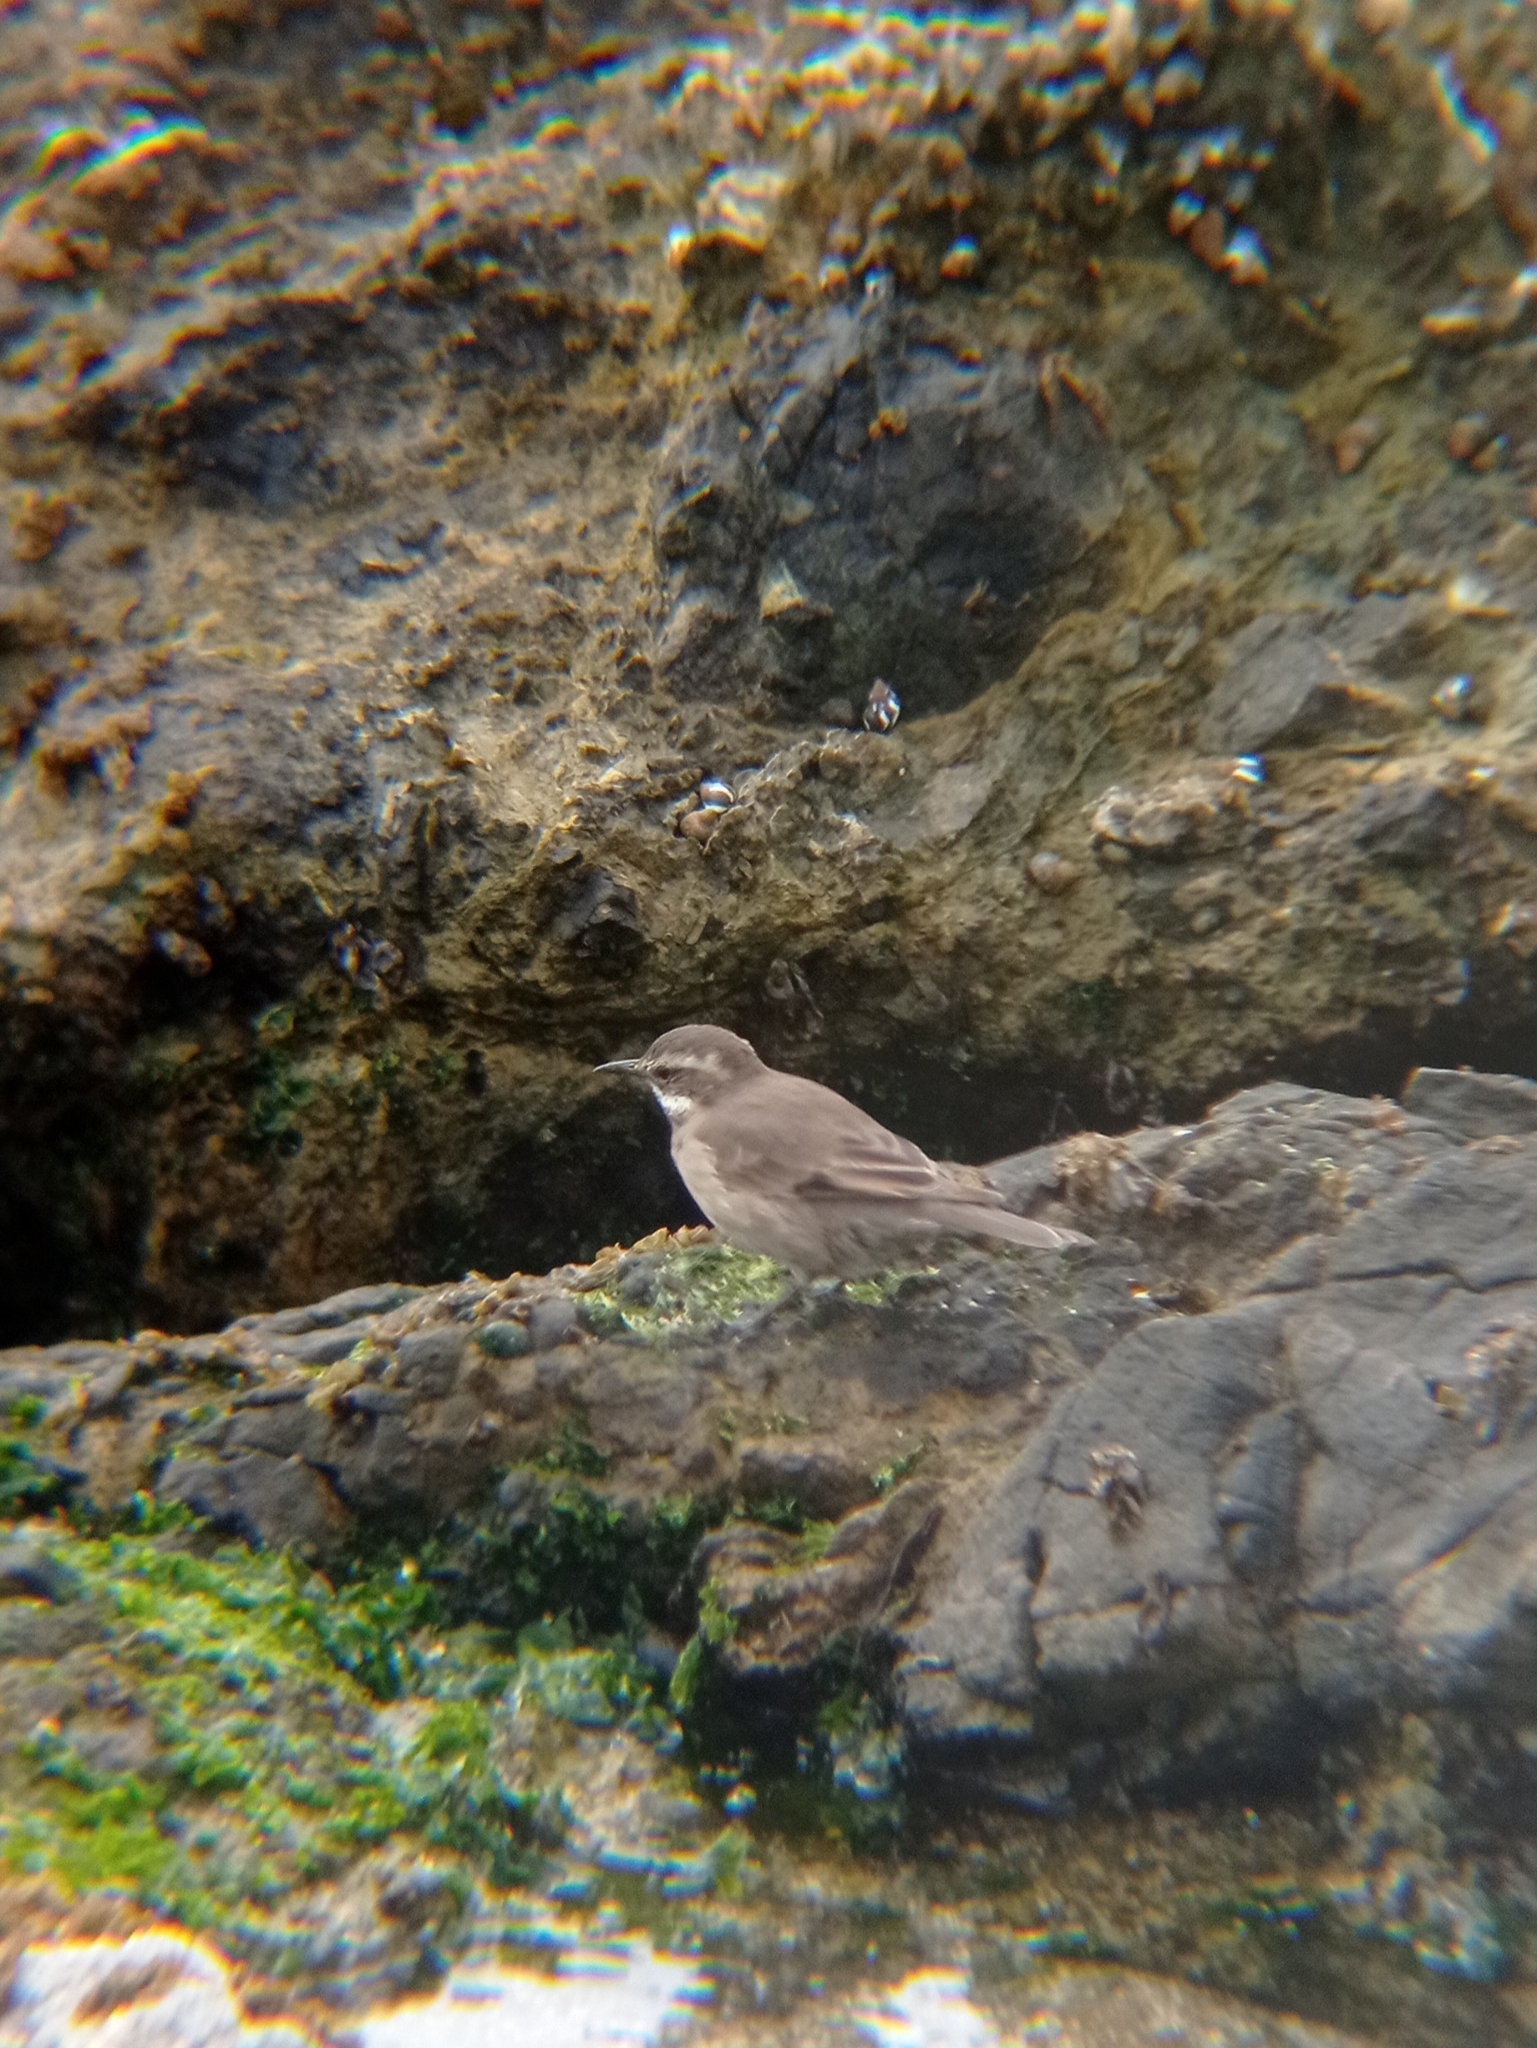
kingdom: Animalia
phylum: Chordata
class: Aves
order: Passeriformes
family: Furnariidae
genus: Cinclodes
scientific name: Cinclodes nigrofumosus
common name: Chilean seaside cinclodes
